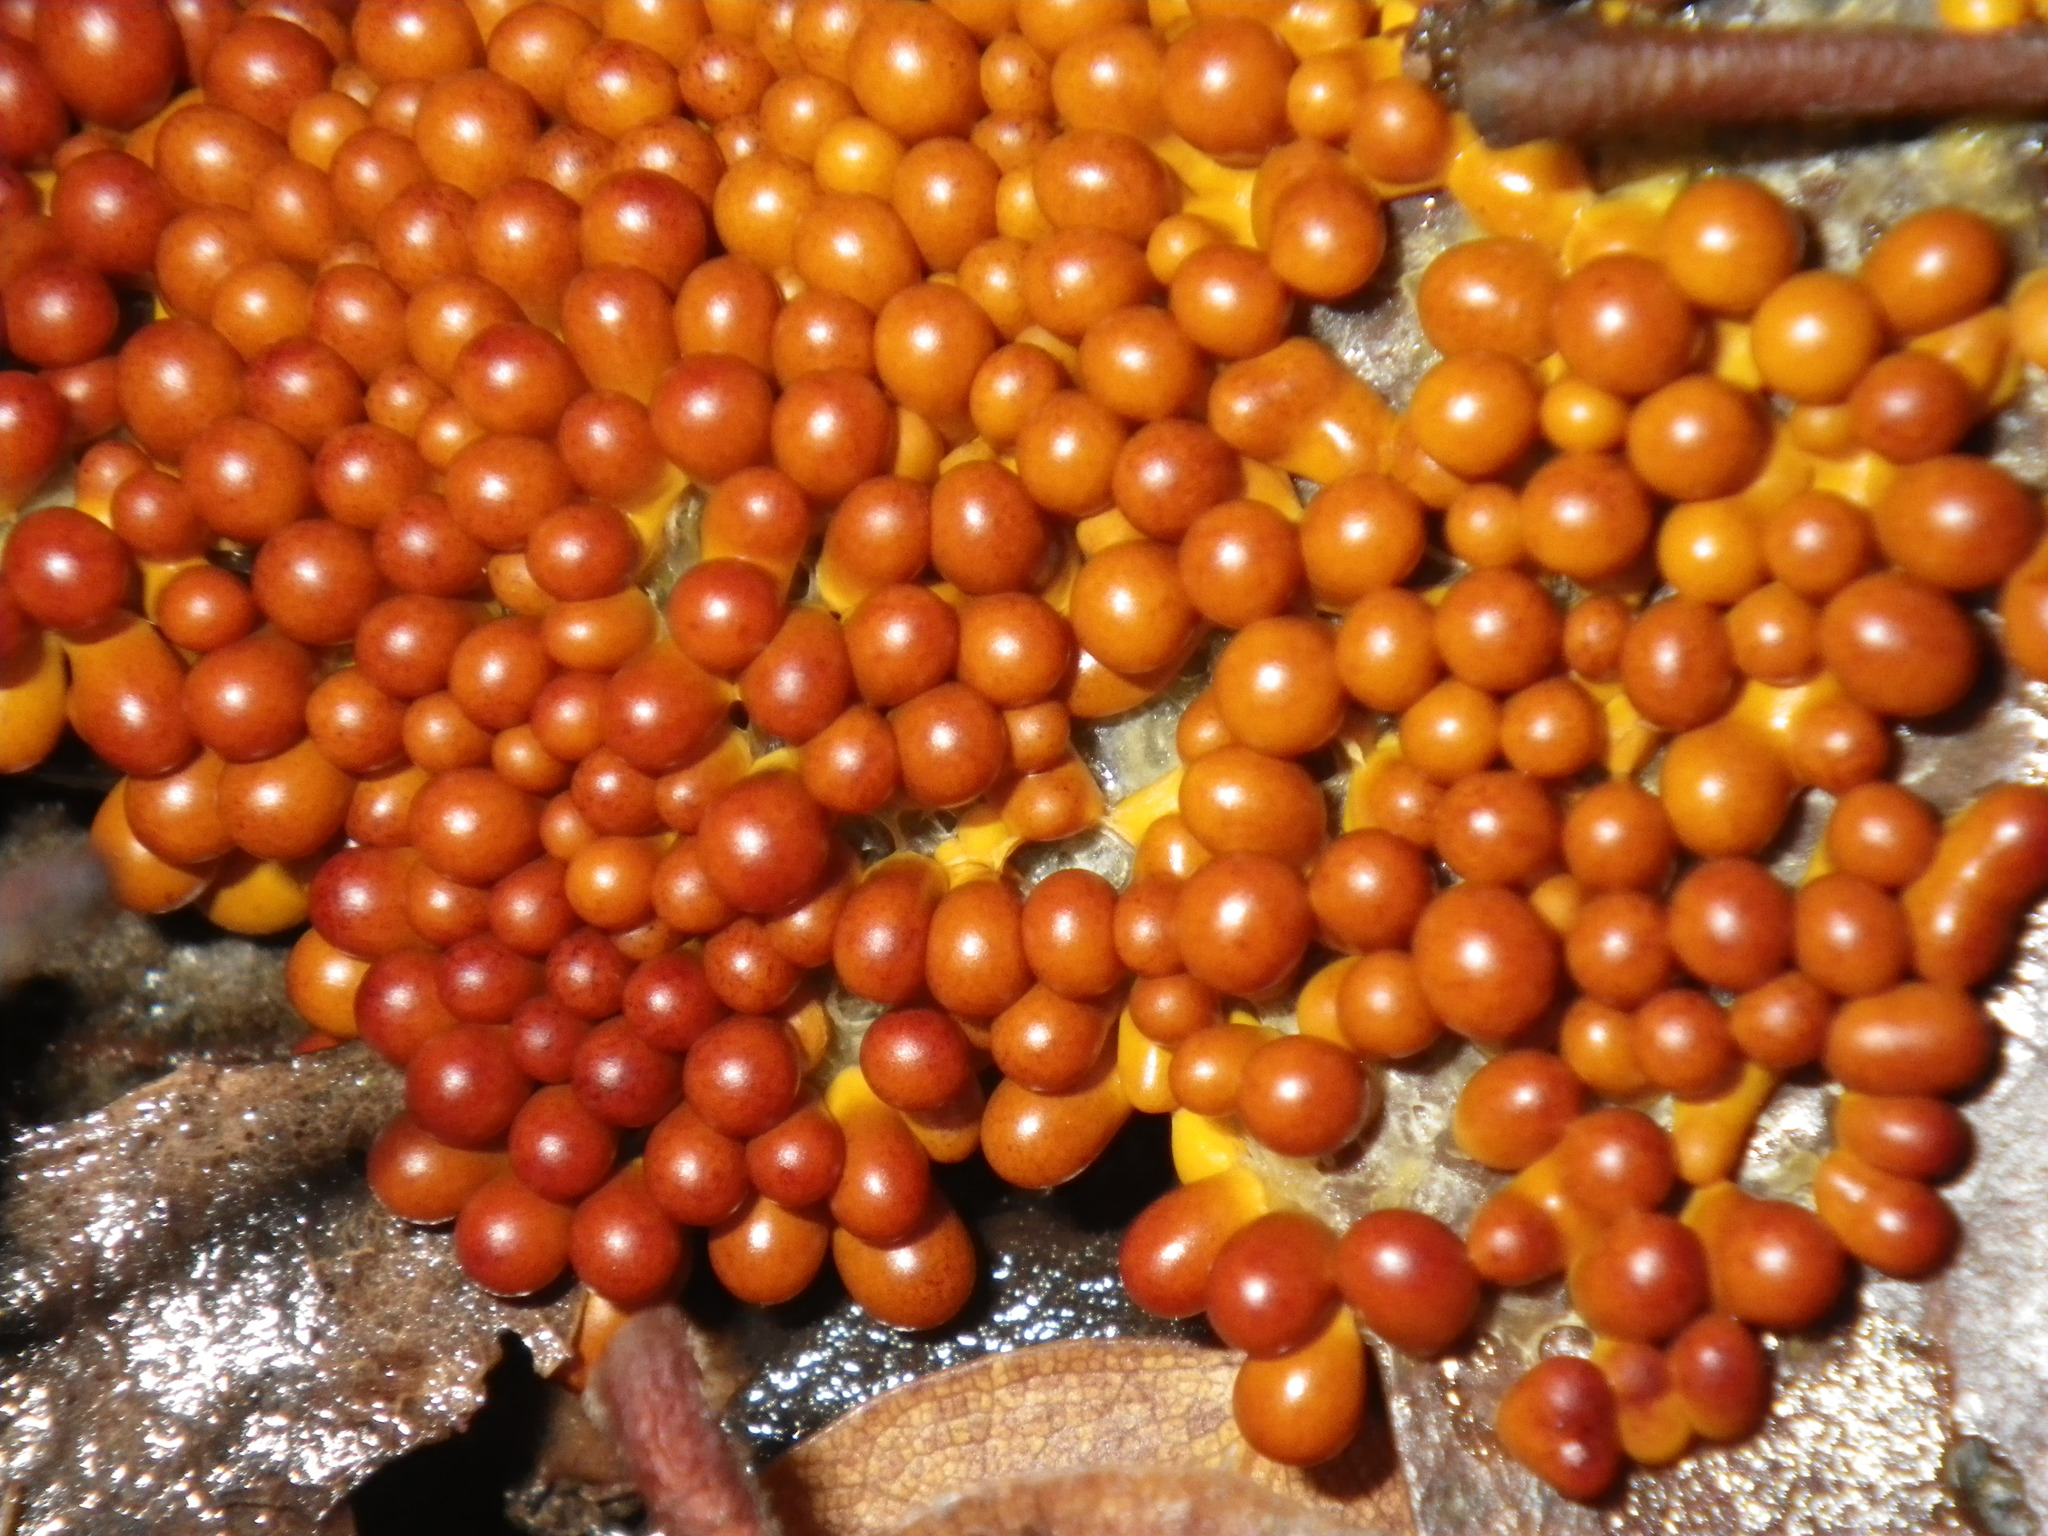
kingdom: Protozoa
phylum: Mycetozoa
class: Myxomycetes
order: Physarales
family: Physaraceae
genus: Leocarpus
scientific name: Leocarpus fragilis
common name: Insect-egg slime
